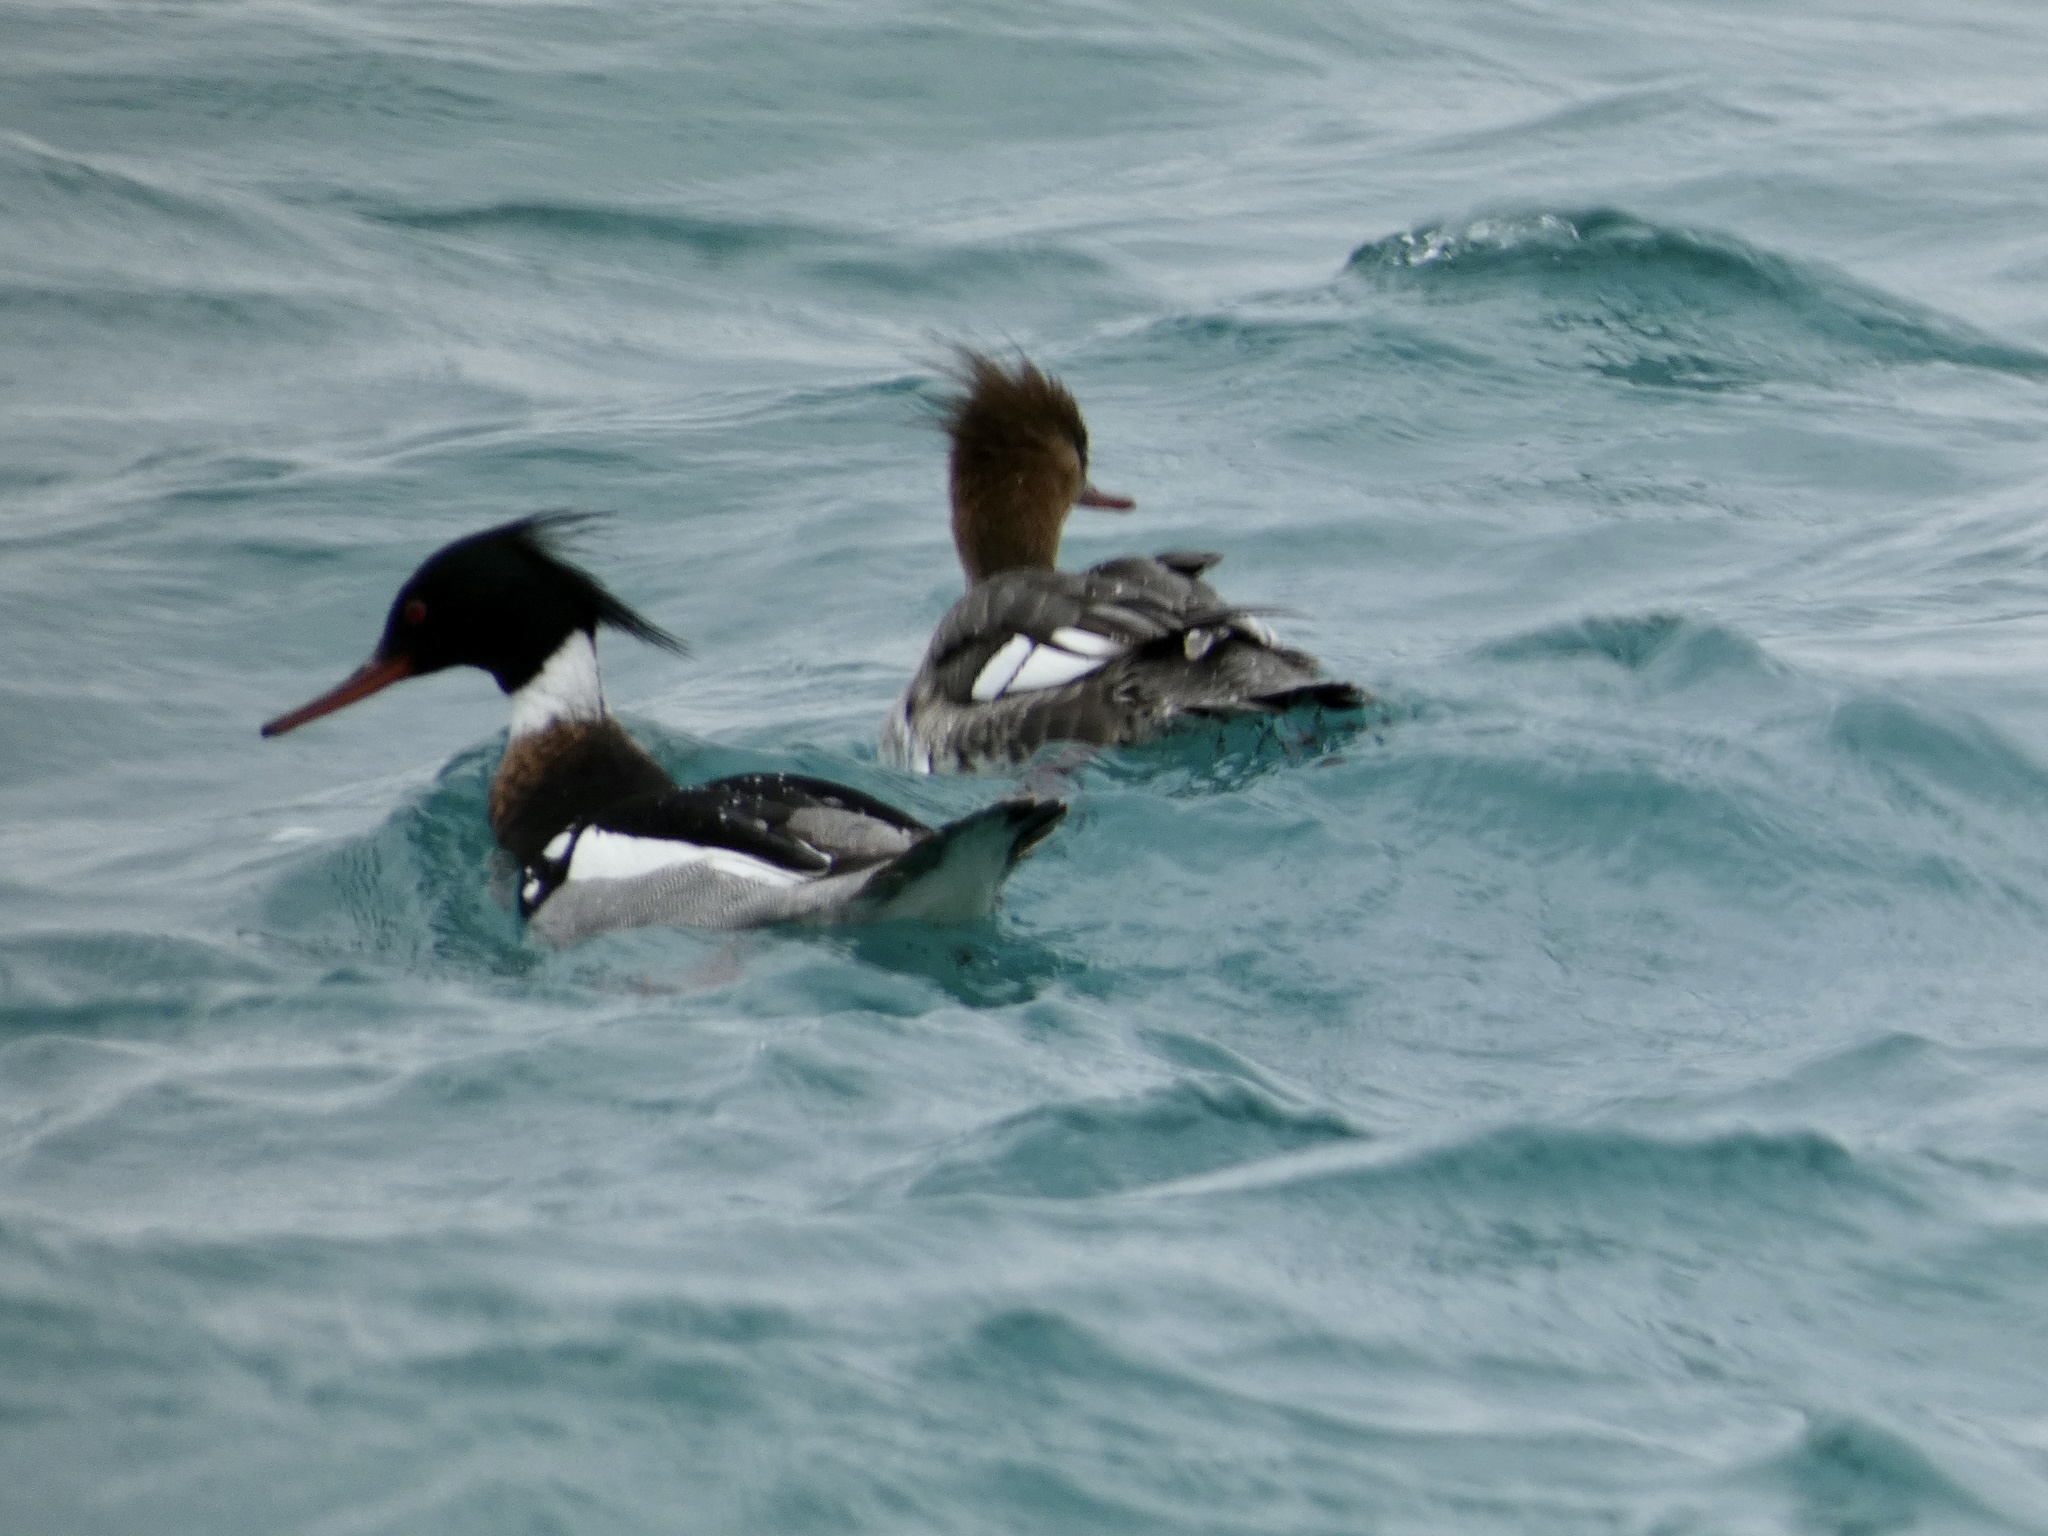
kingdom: Animalia
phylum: Chordata
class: Aves
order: Anseriformes
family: Anatidae
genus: Mergus
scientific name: Mergus serrator
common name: Red-breasted merganser
